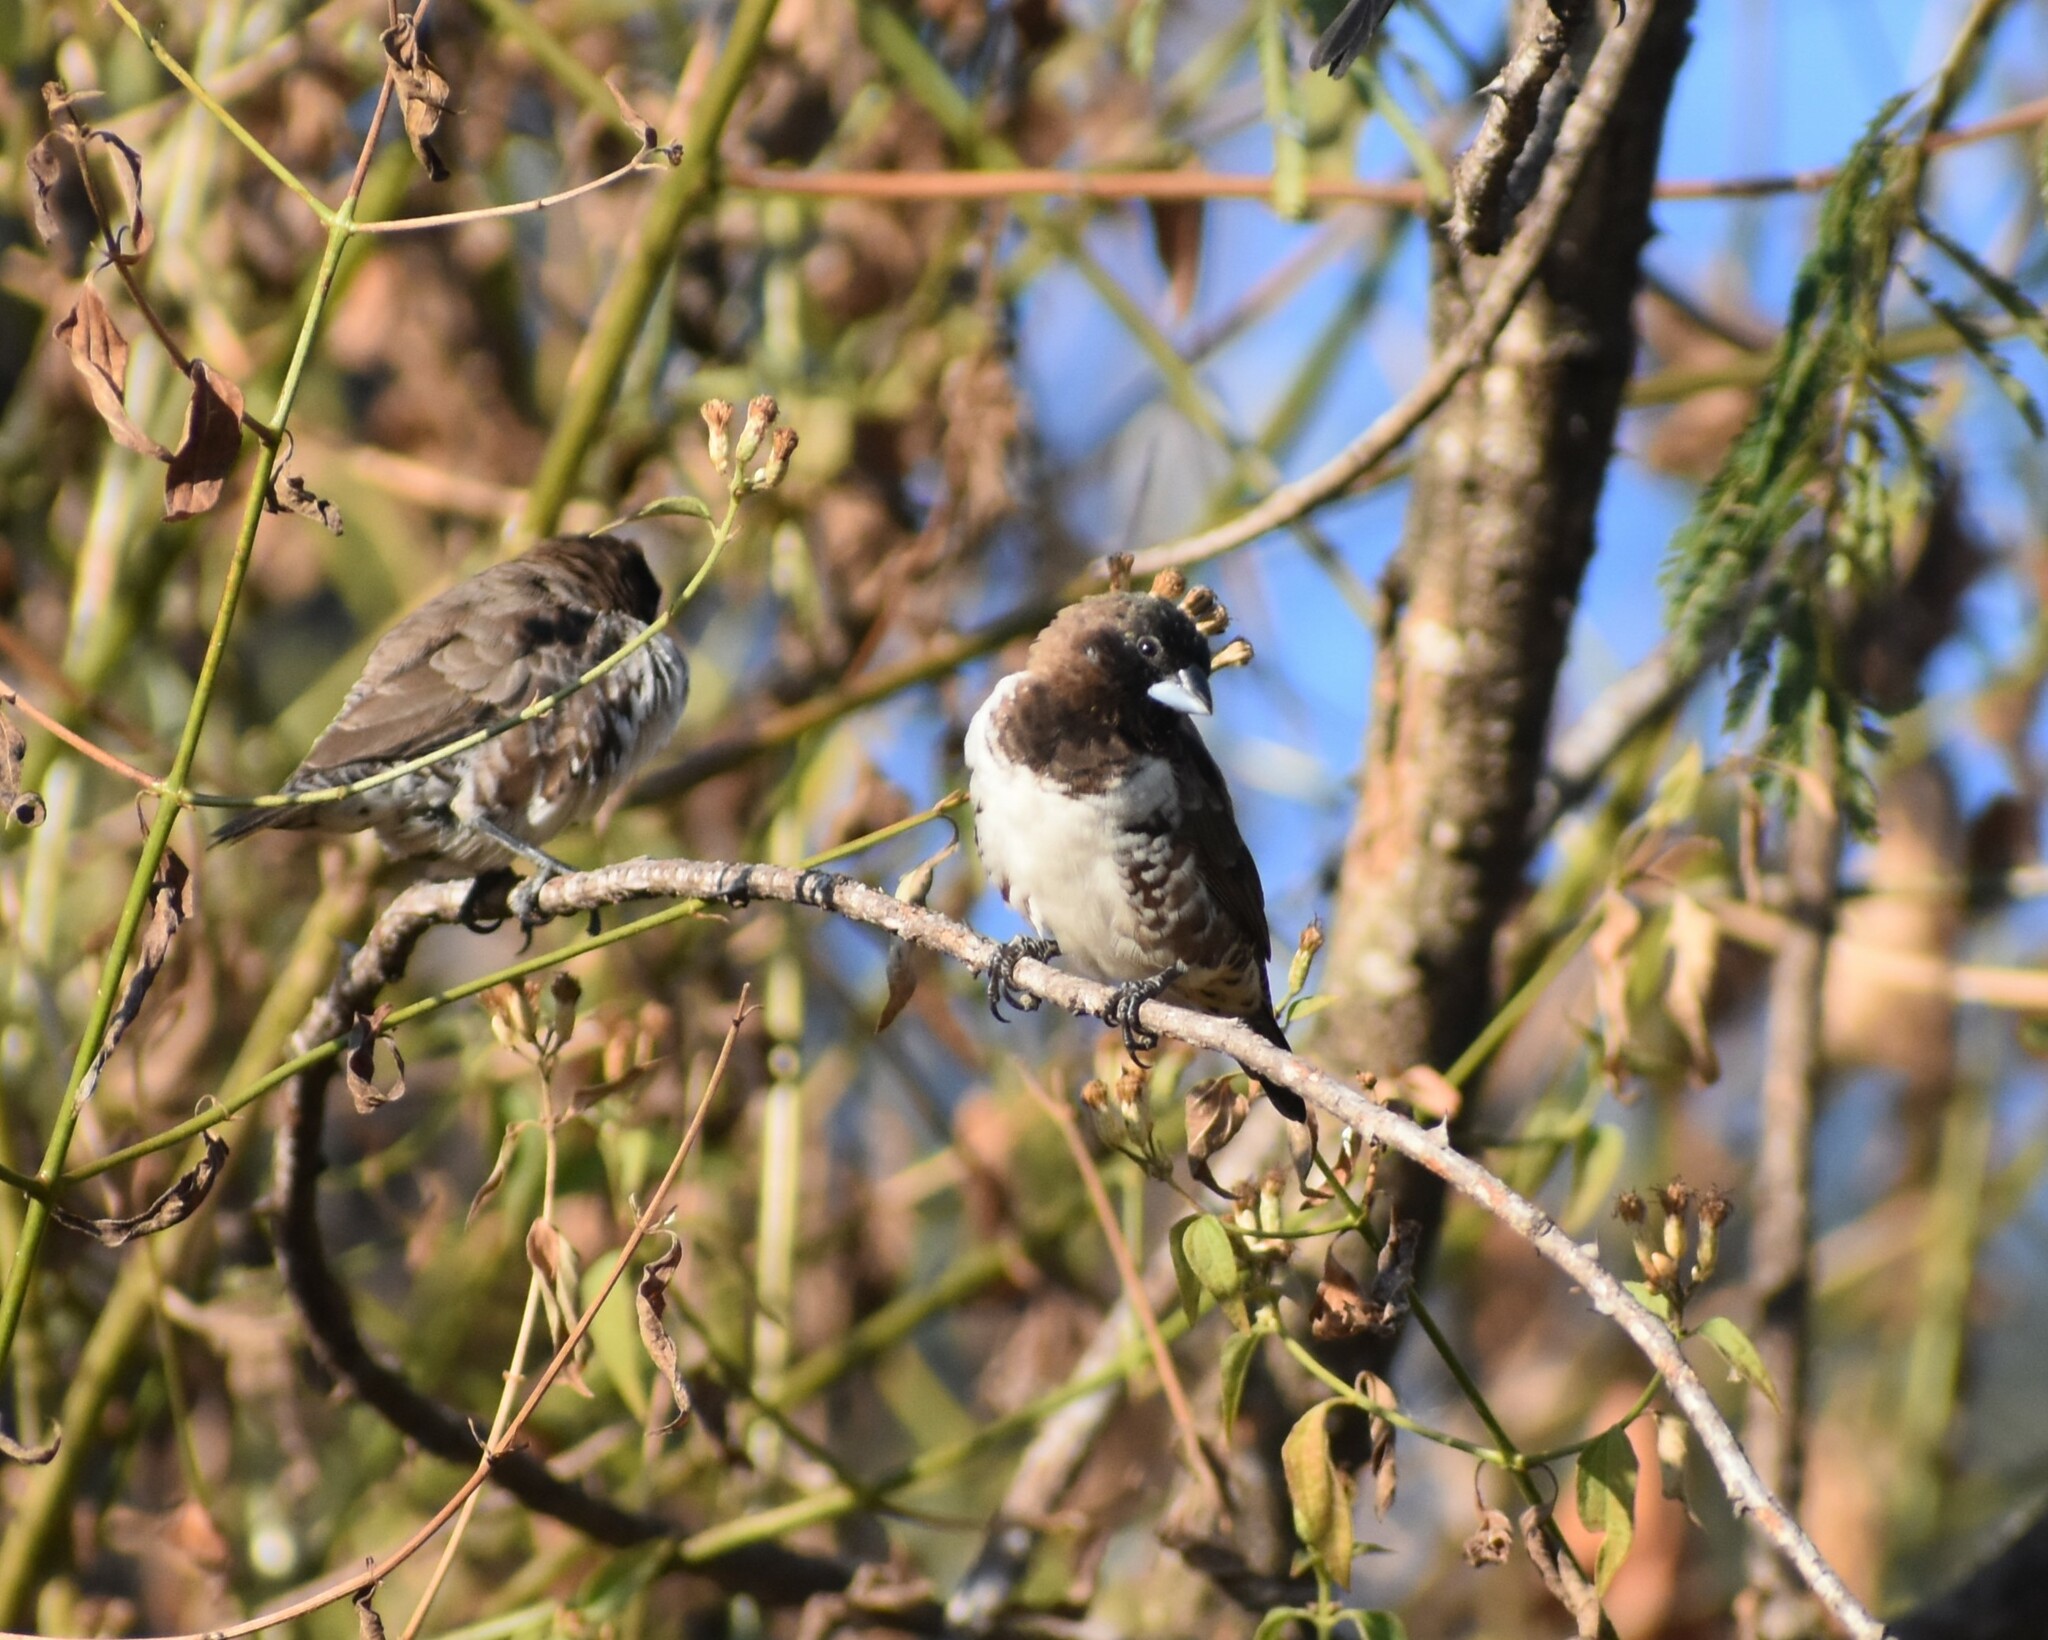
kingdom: Animalia
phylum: Chordata
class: Aves
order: Passeriformes
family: Estrildidae
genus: Lonchura
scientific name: Lonchura cucullata
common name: Bronze mannikin
